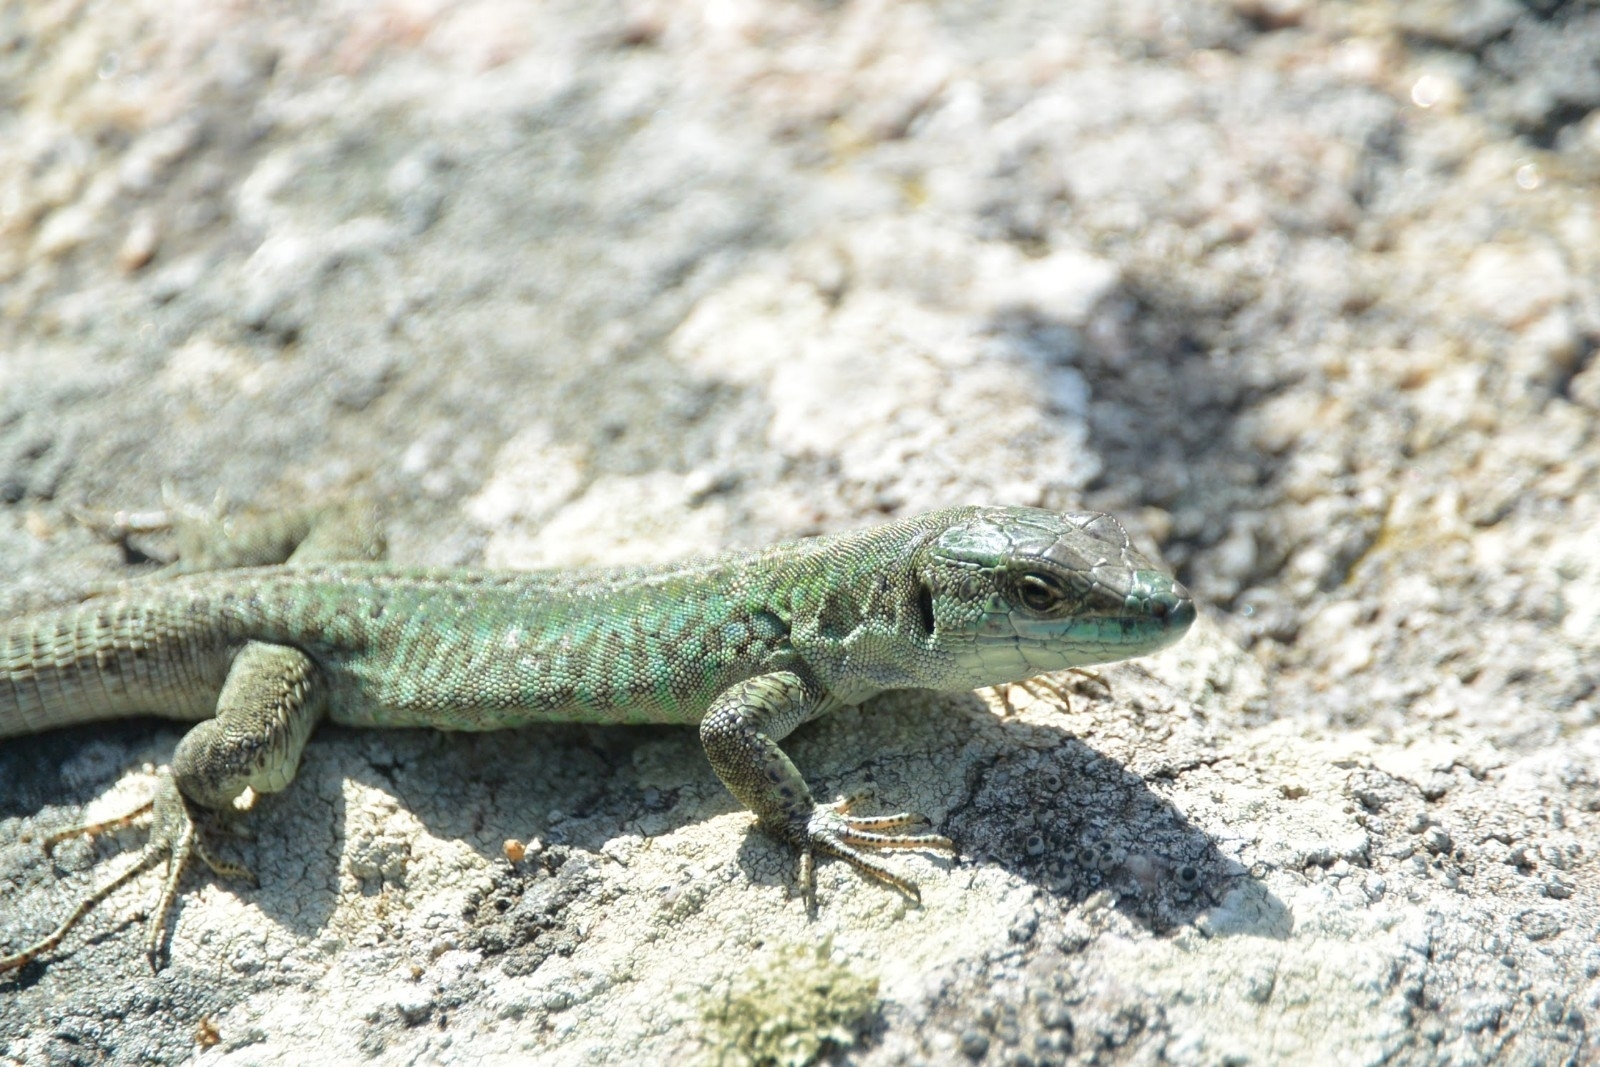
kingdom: Animalia
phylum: Chordata
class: Squamata
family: Lacertidae
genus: Podarcis
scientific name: Podarcis siculus
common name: Italian wall lizard
